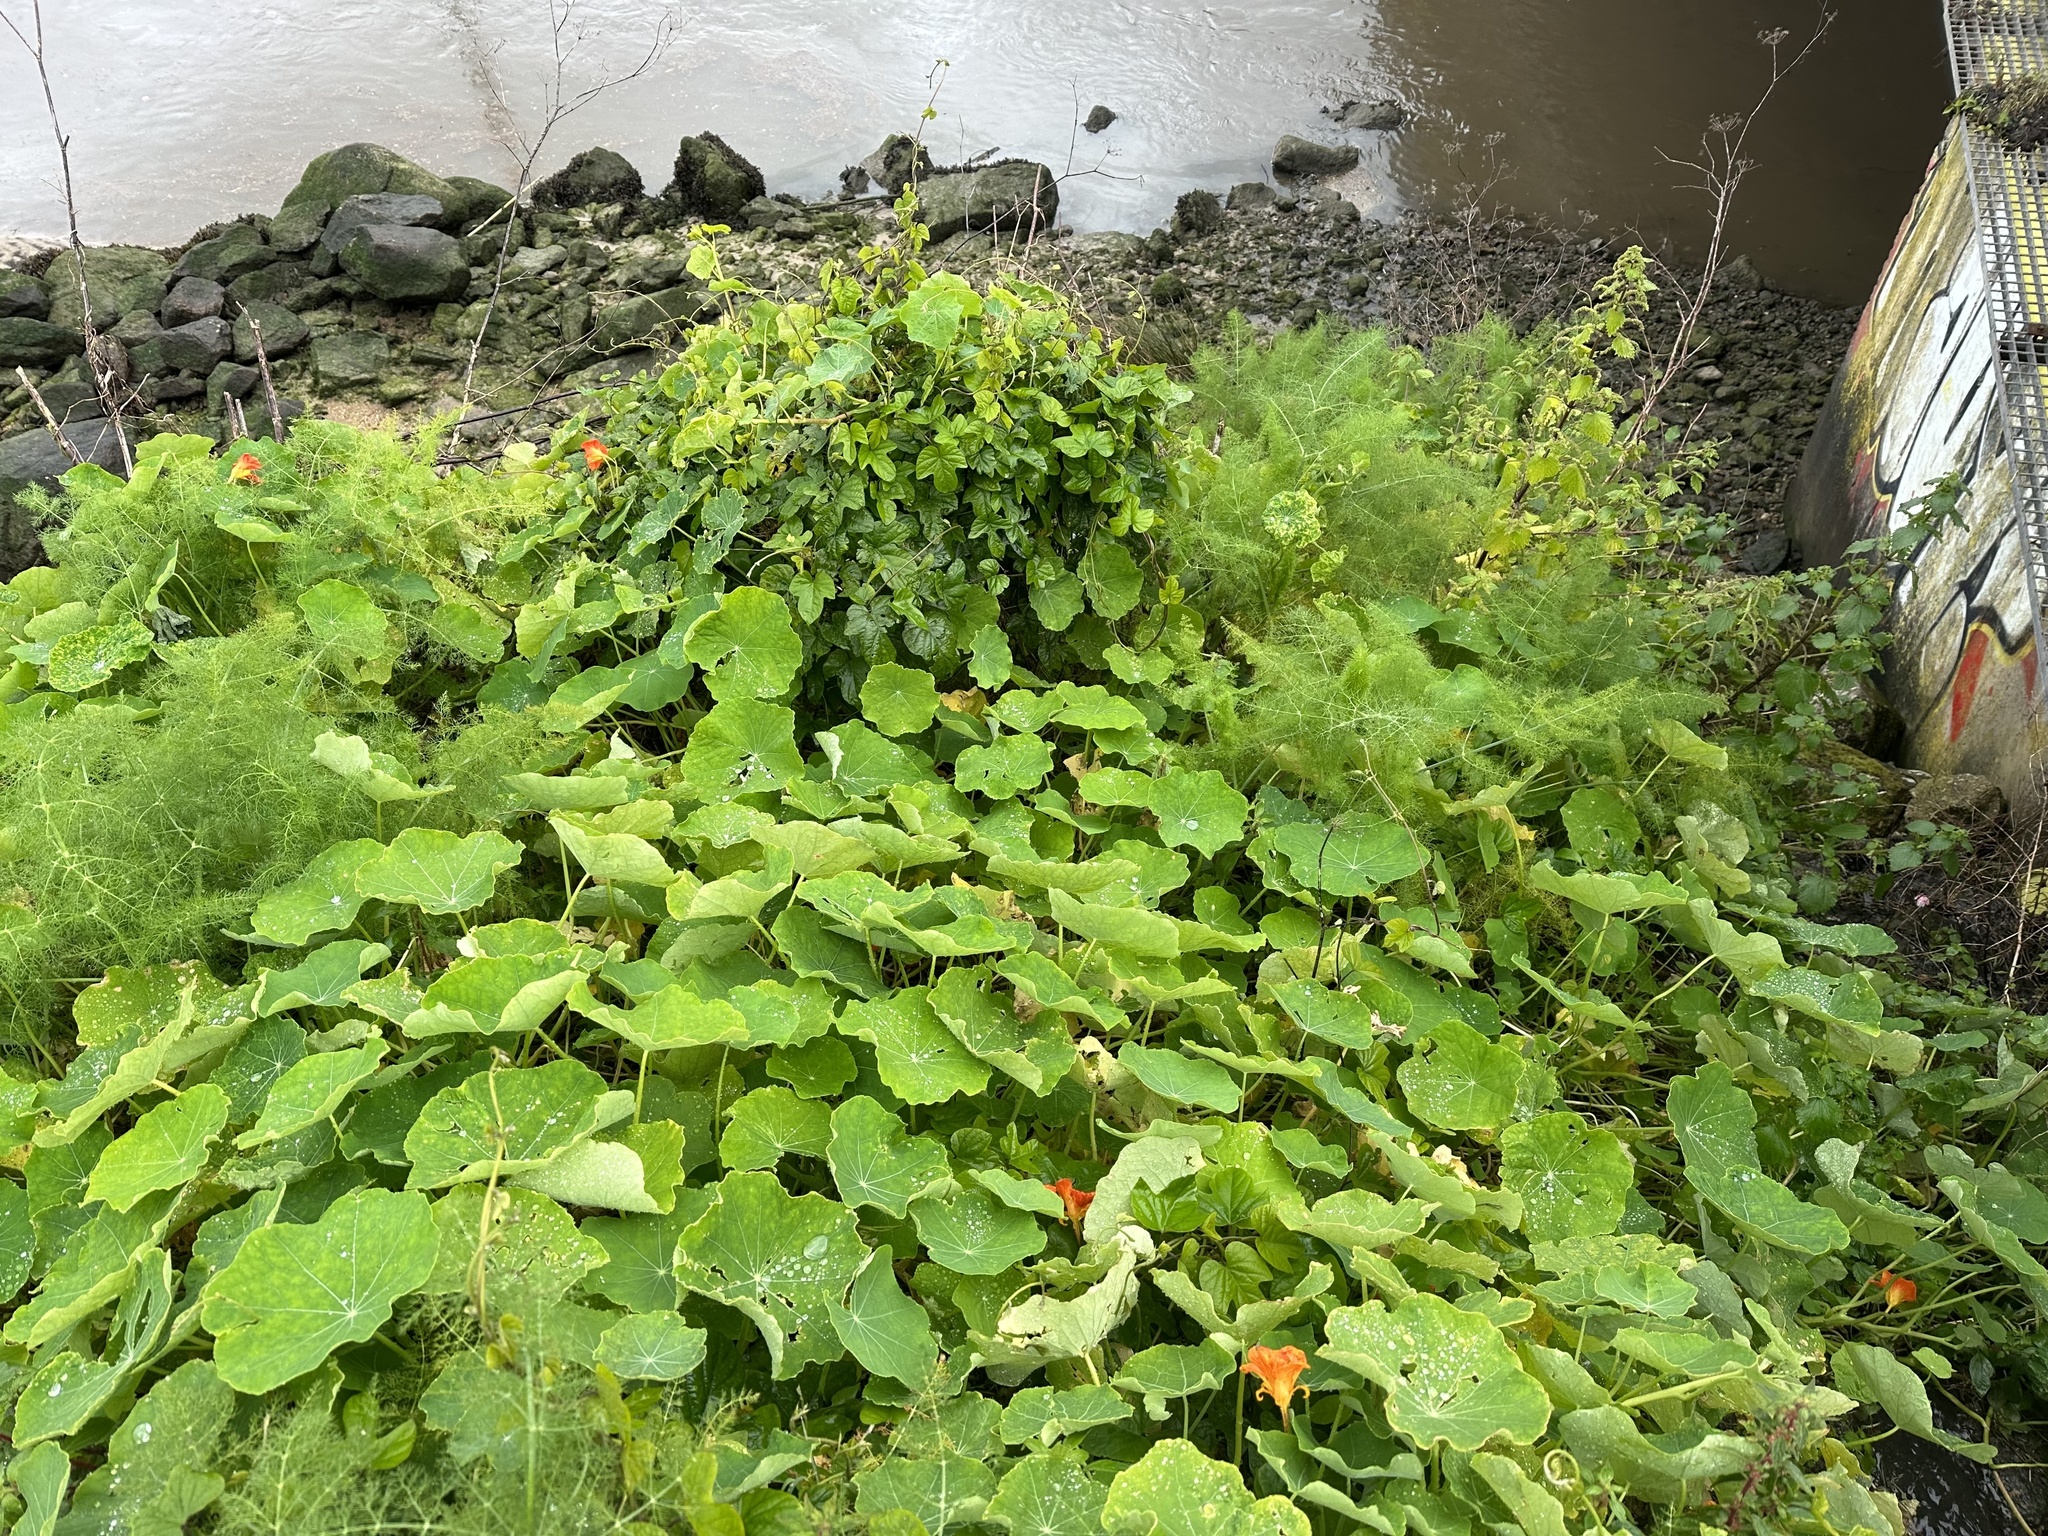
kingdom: Plantae
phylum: Tracheophyta
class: Magnoliopsida
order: Brassicales
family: Tropaeolaceae
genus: Tropaeolum
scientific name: Tropaeolum majus
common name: Nasturtium
